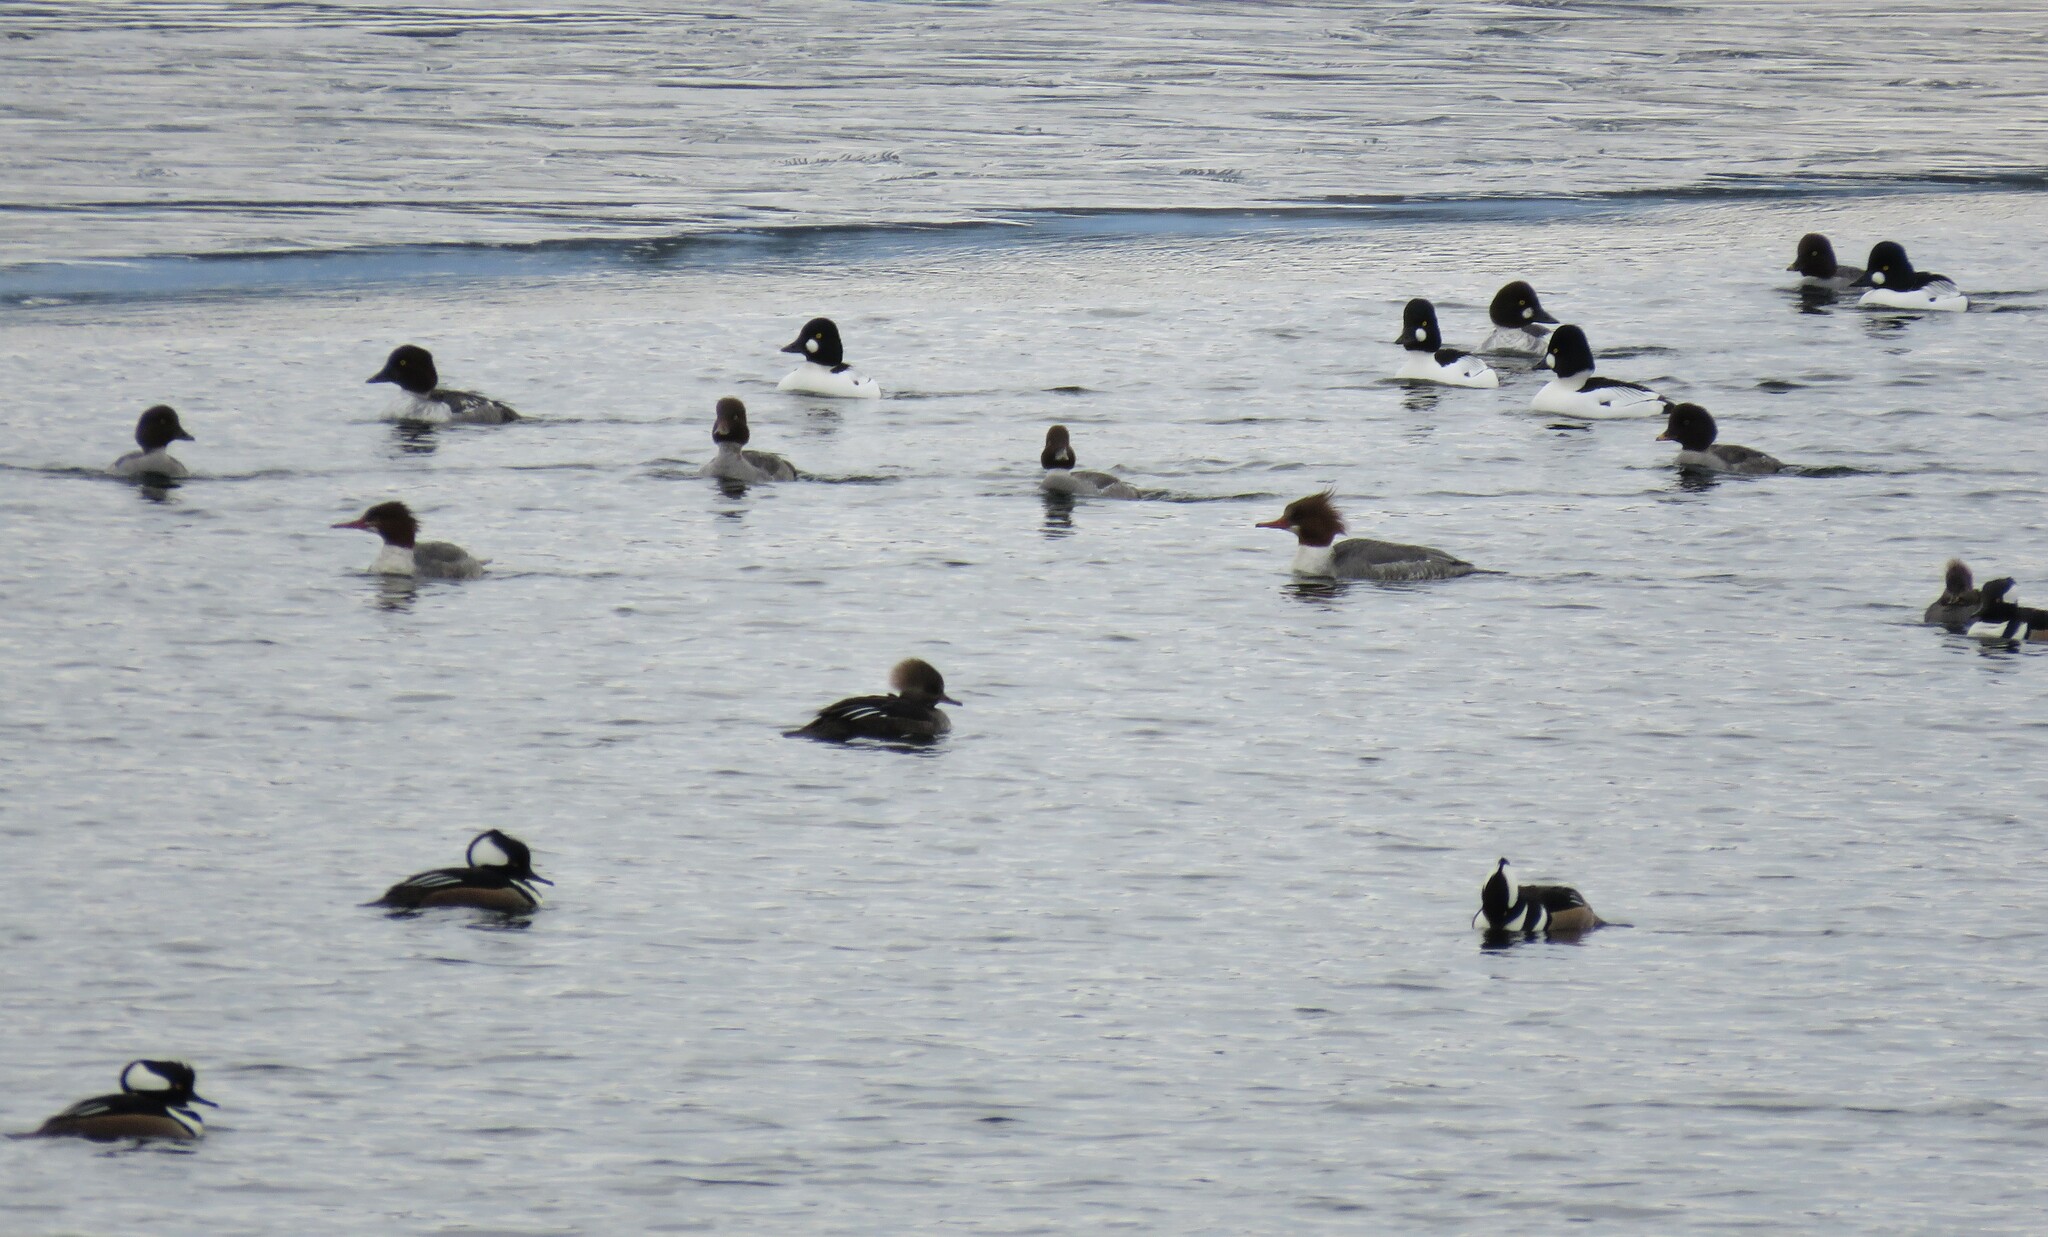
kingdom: Animalia
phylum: Chordata
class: Aves
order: Anseriformes
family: Anatidae
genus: Bucephala
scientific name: Bucephala clangula
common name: Common goldeneye
